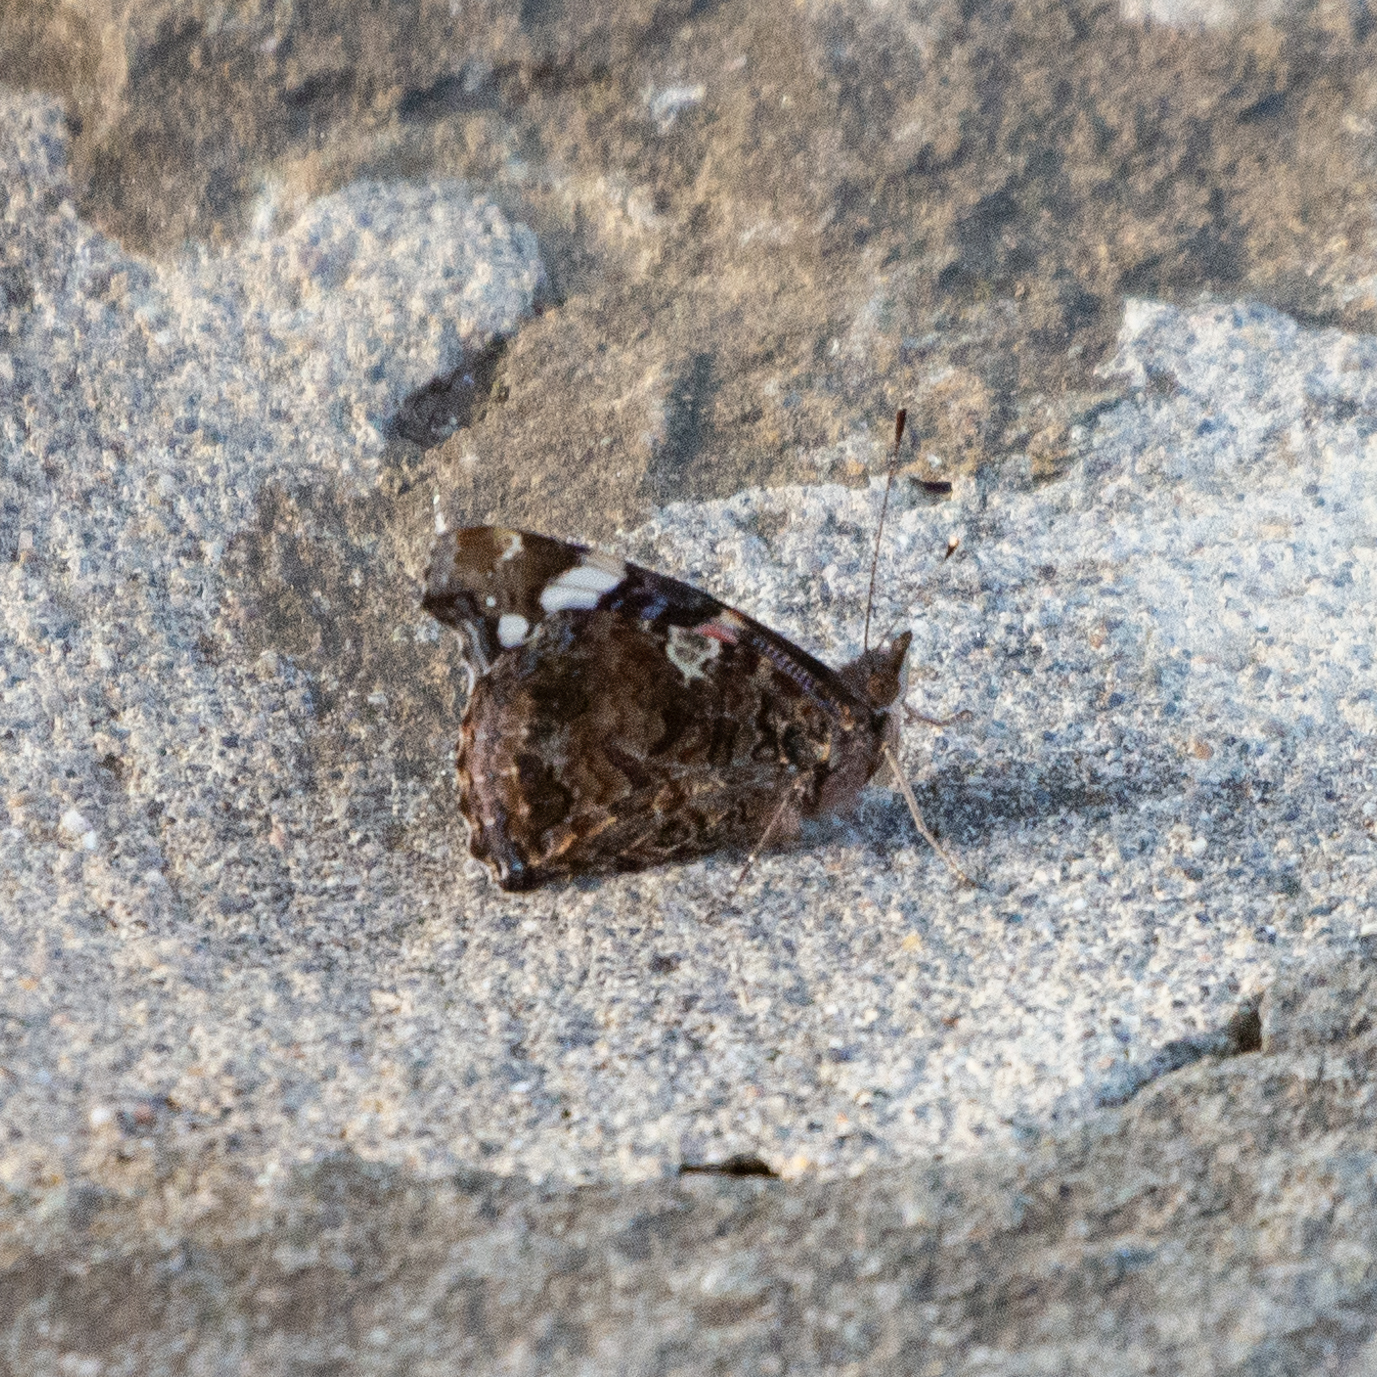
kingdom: Animalia
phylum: Arthropoda
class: Insecta
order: Lepidoptera
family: Nymphalidae
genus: Vanessa
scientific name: Vanessa atalanta
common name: Red admiral
